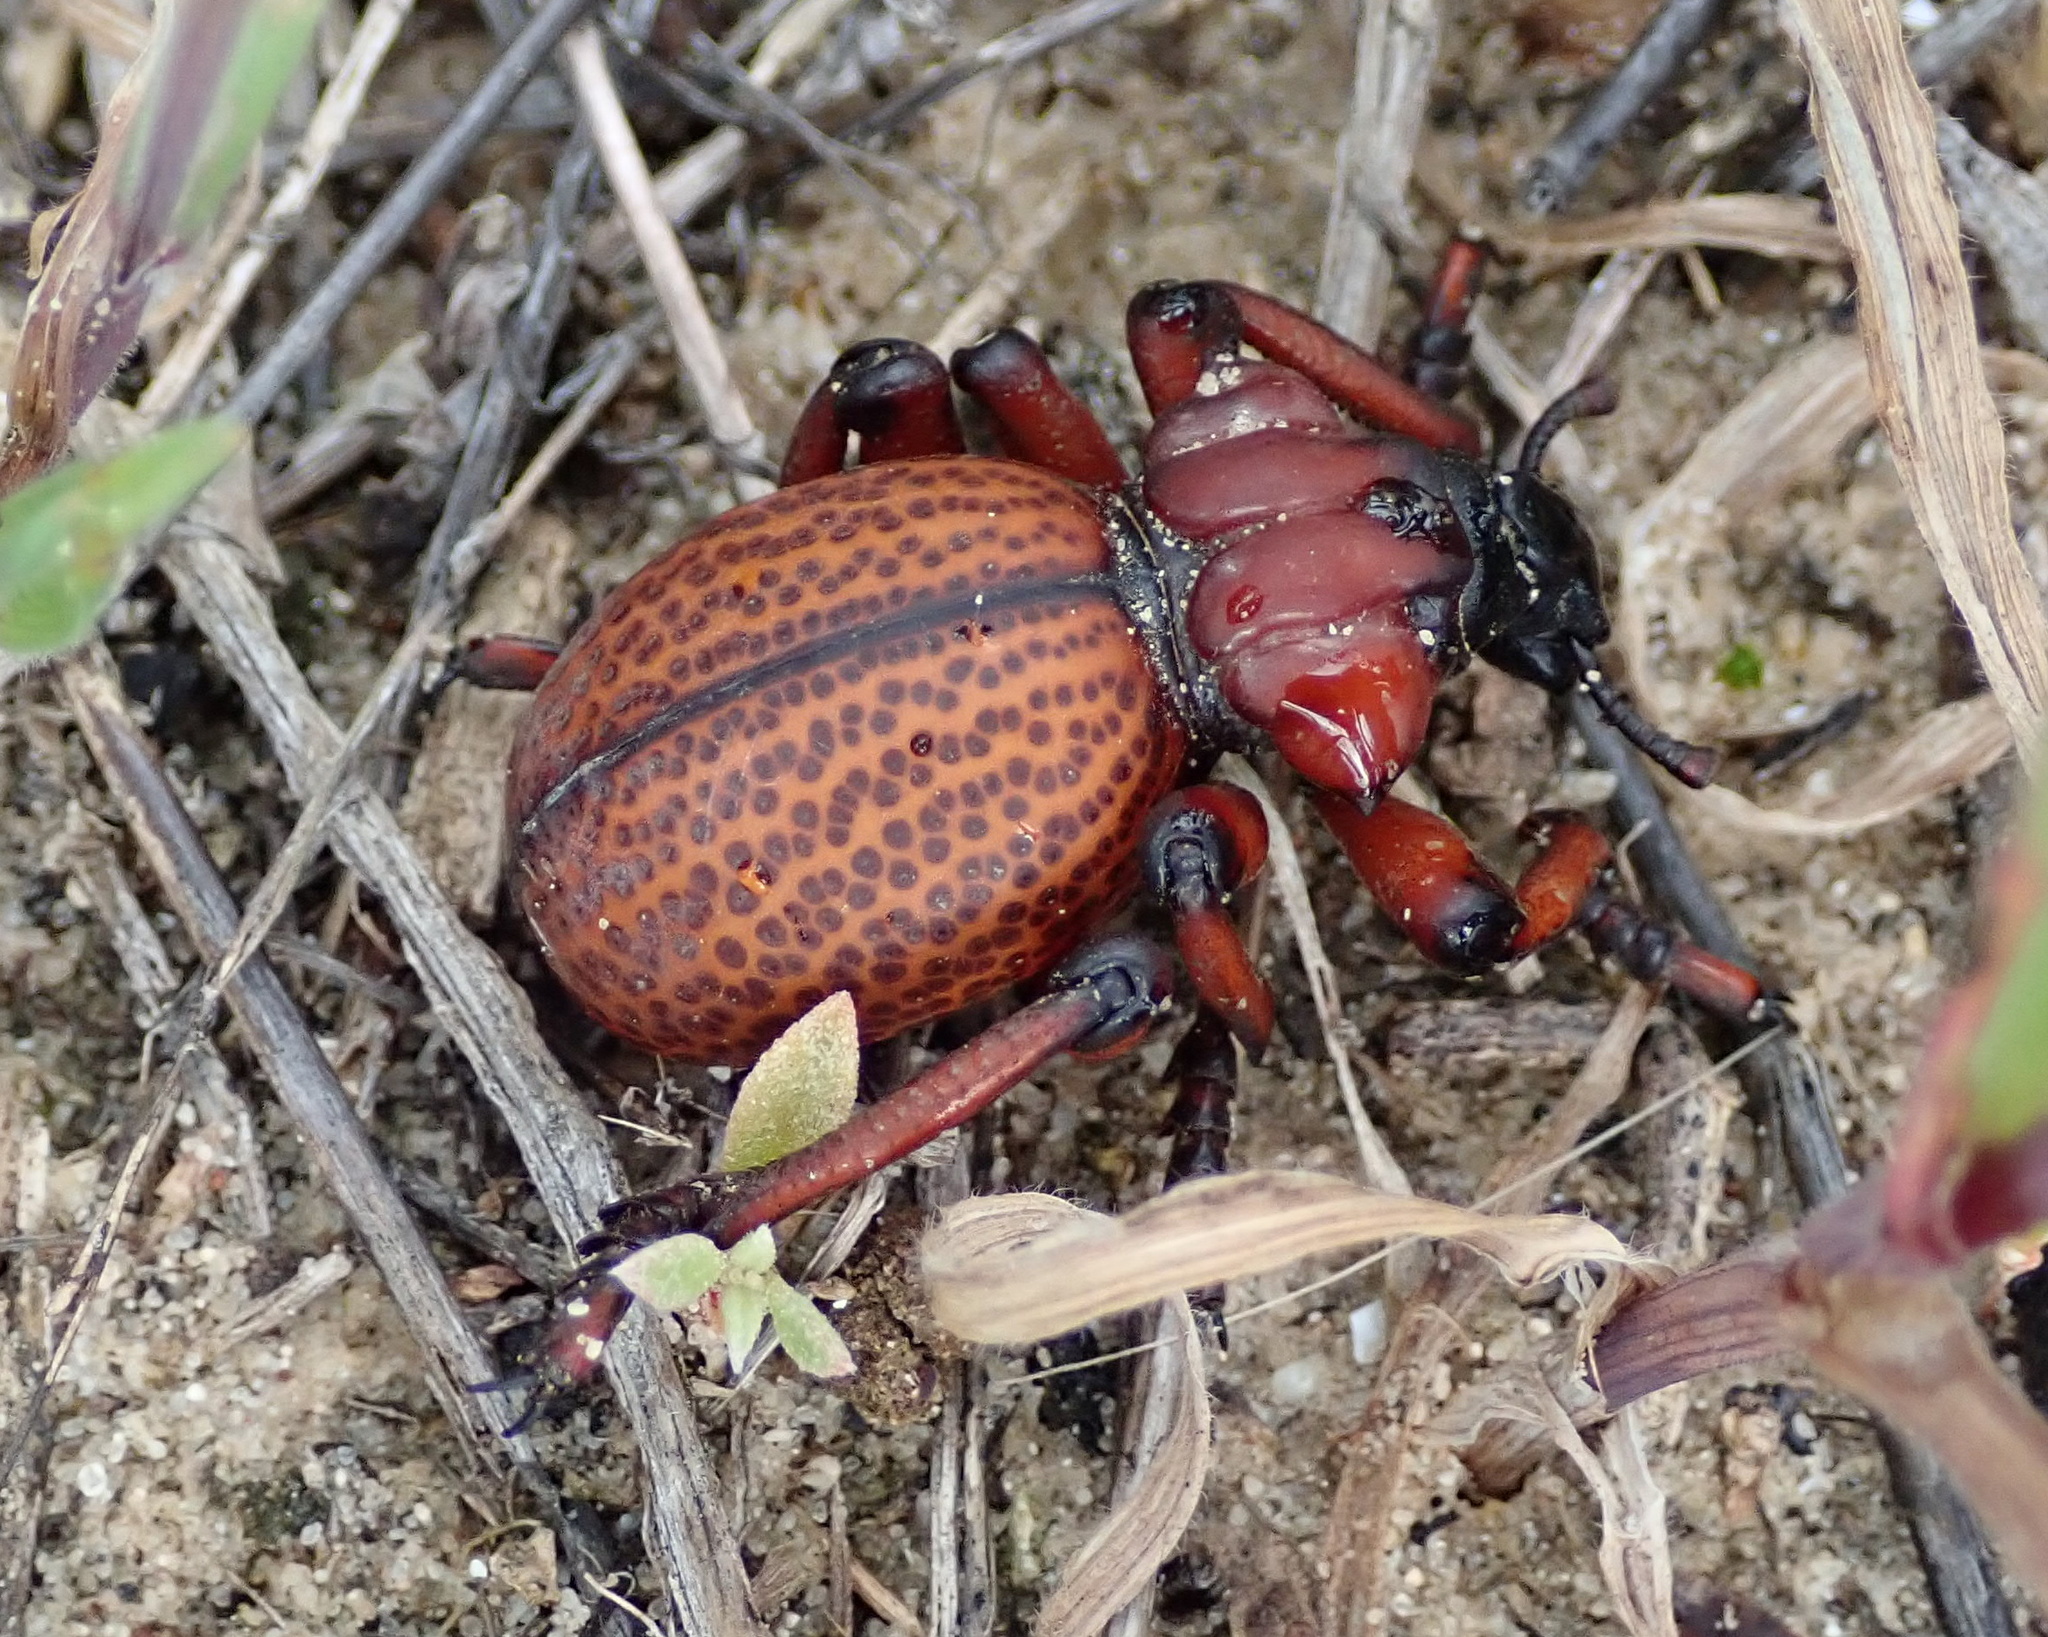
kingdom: Animalia
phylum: Arthropoda
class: Insecta
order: Coleoptera
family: Brachyceridae
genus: Brachycerus
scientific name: Brachycerus obesus
